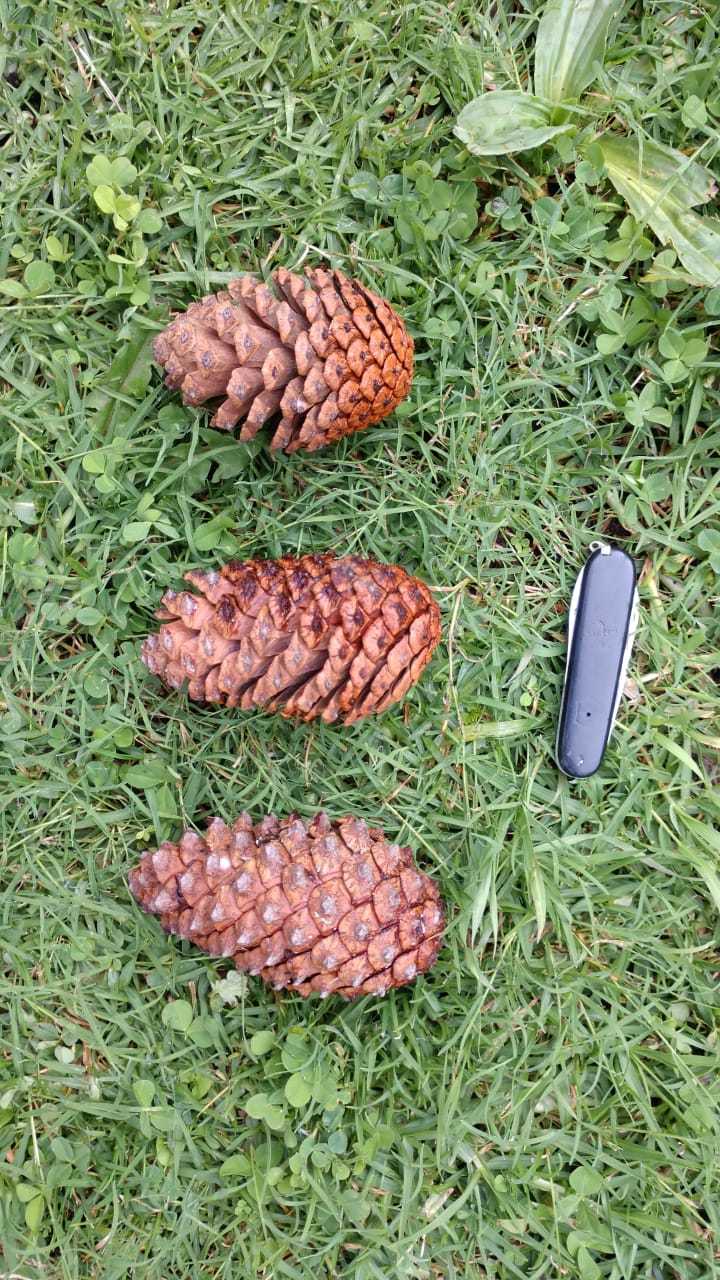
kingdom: Plantae
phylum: Tracheophyta
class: Pinopsida
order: Pinales
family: Pinaceae
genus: Pinus
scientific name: Pinus pseudostrobus
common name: False weymouth pine
